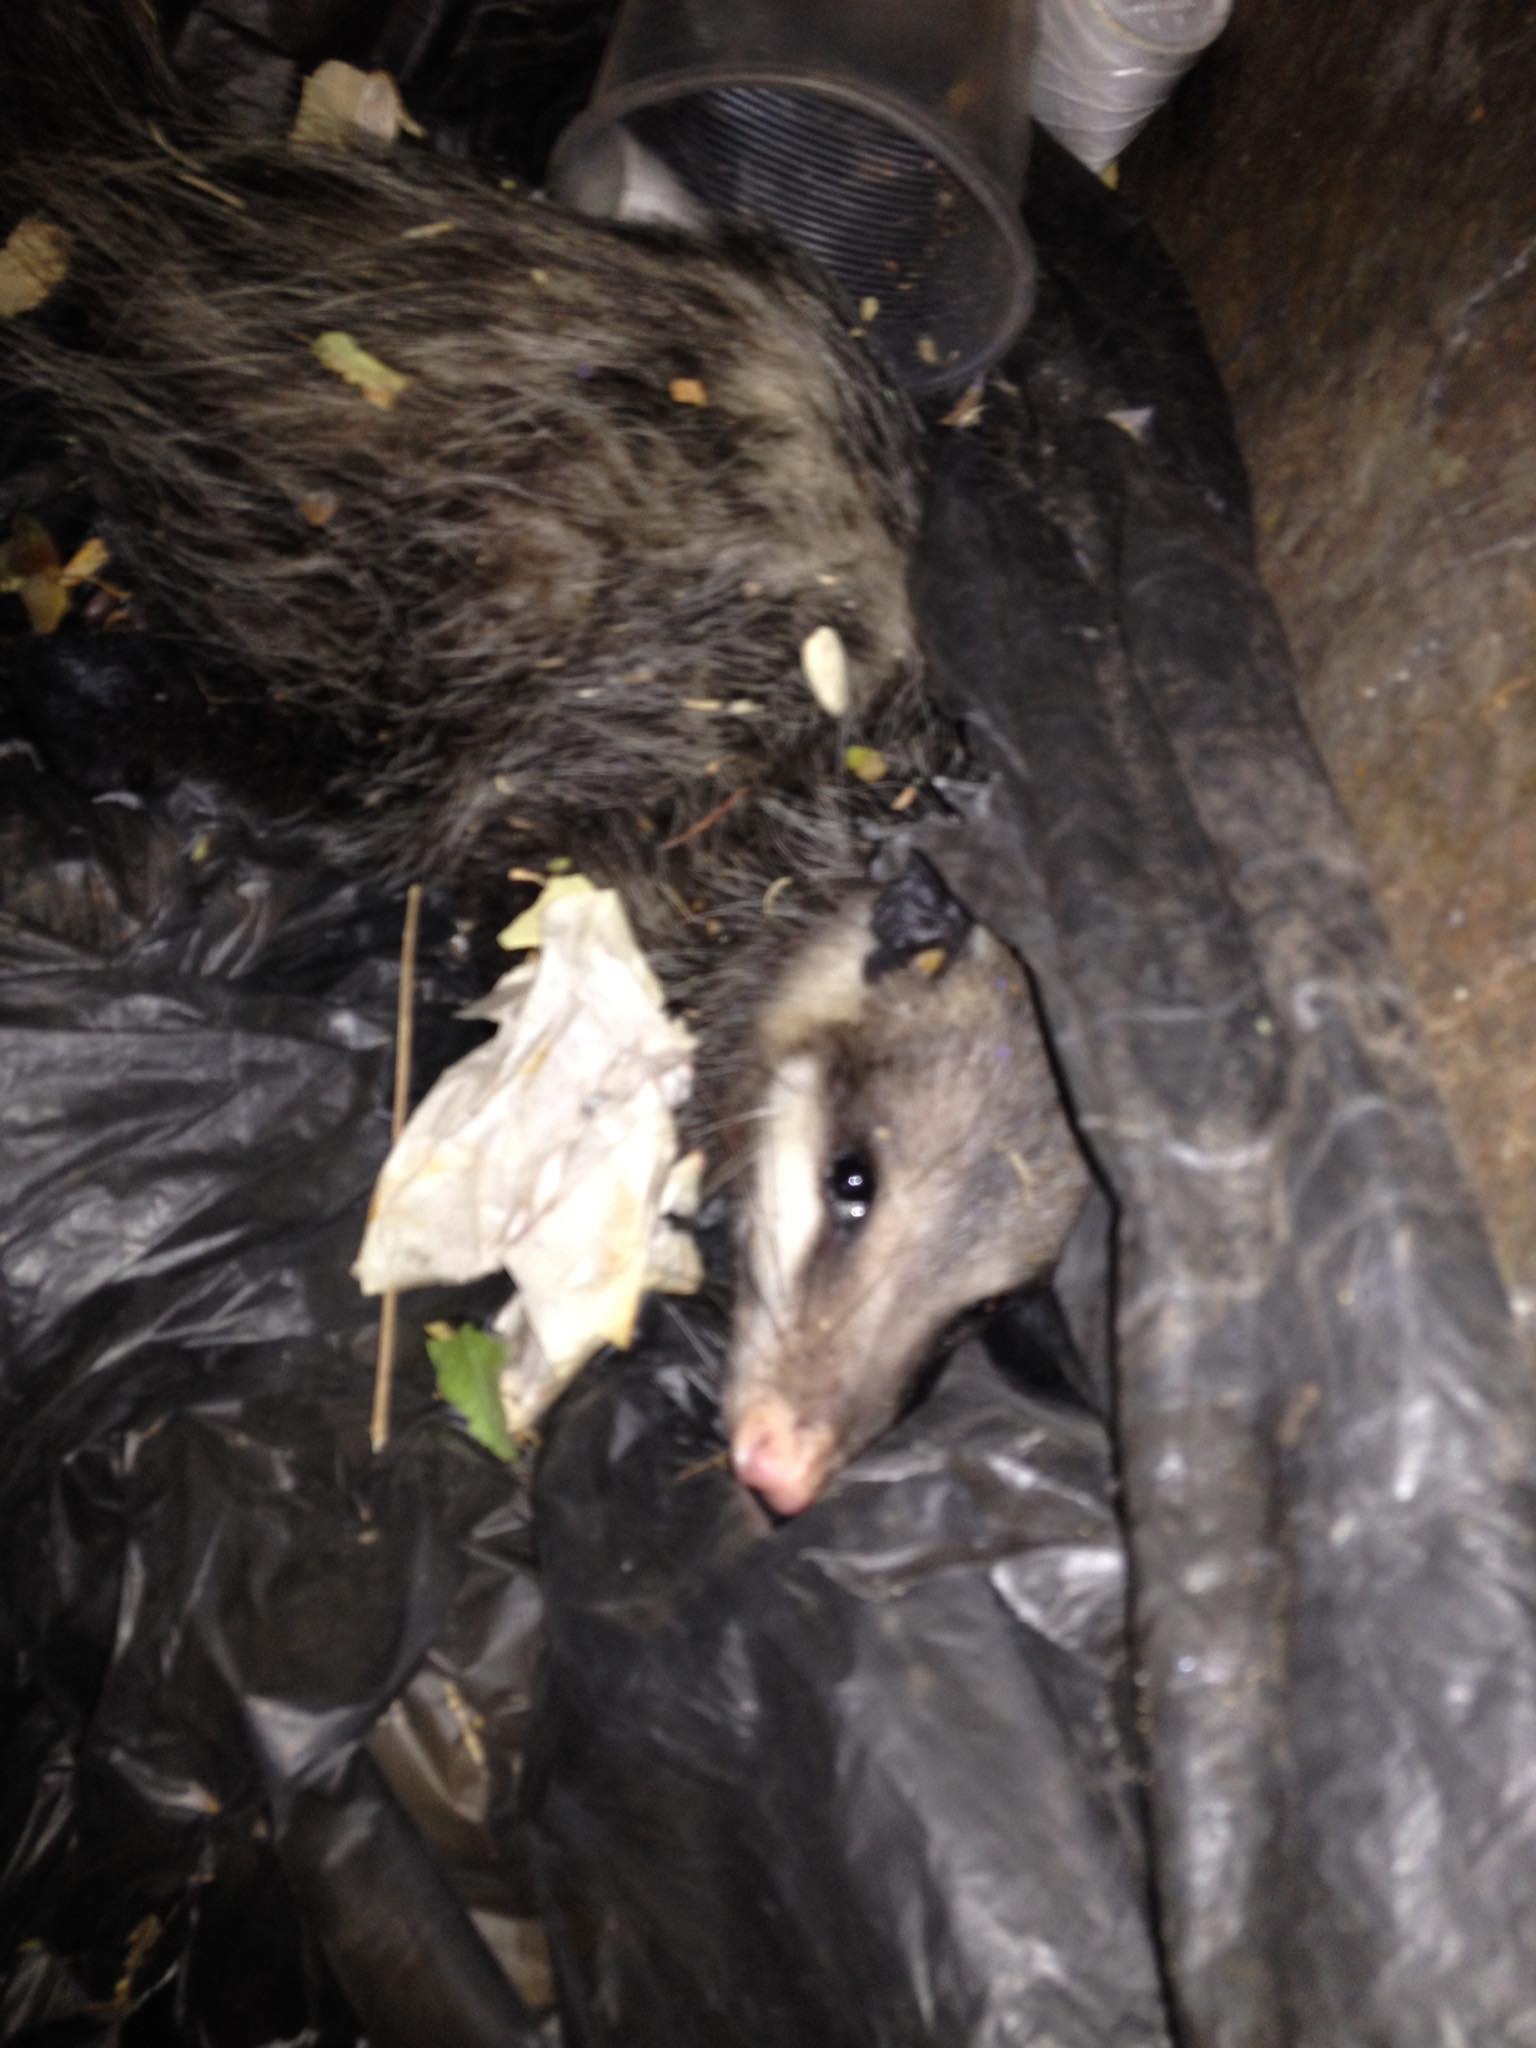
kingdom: Animalia
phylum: Chordata
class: Mammalia
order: Didelphimorphia
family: Didelphidae
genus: Didelphis
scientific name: Didelphis virginiana
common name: Virginia opossum
